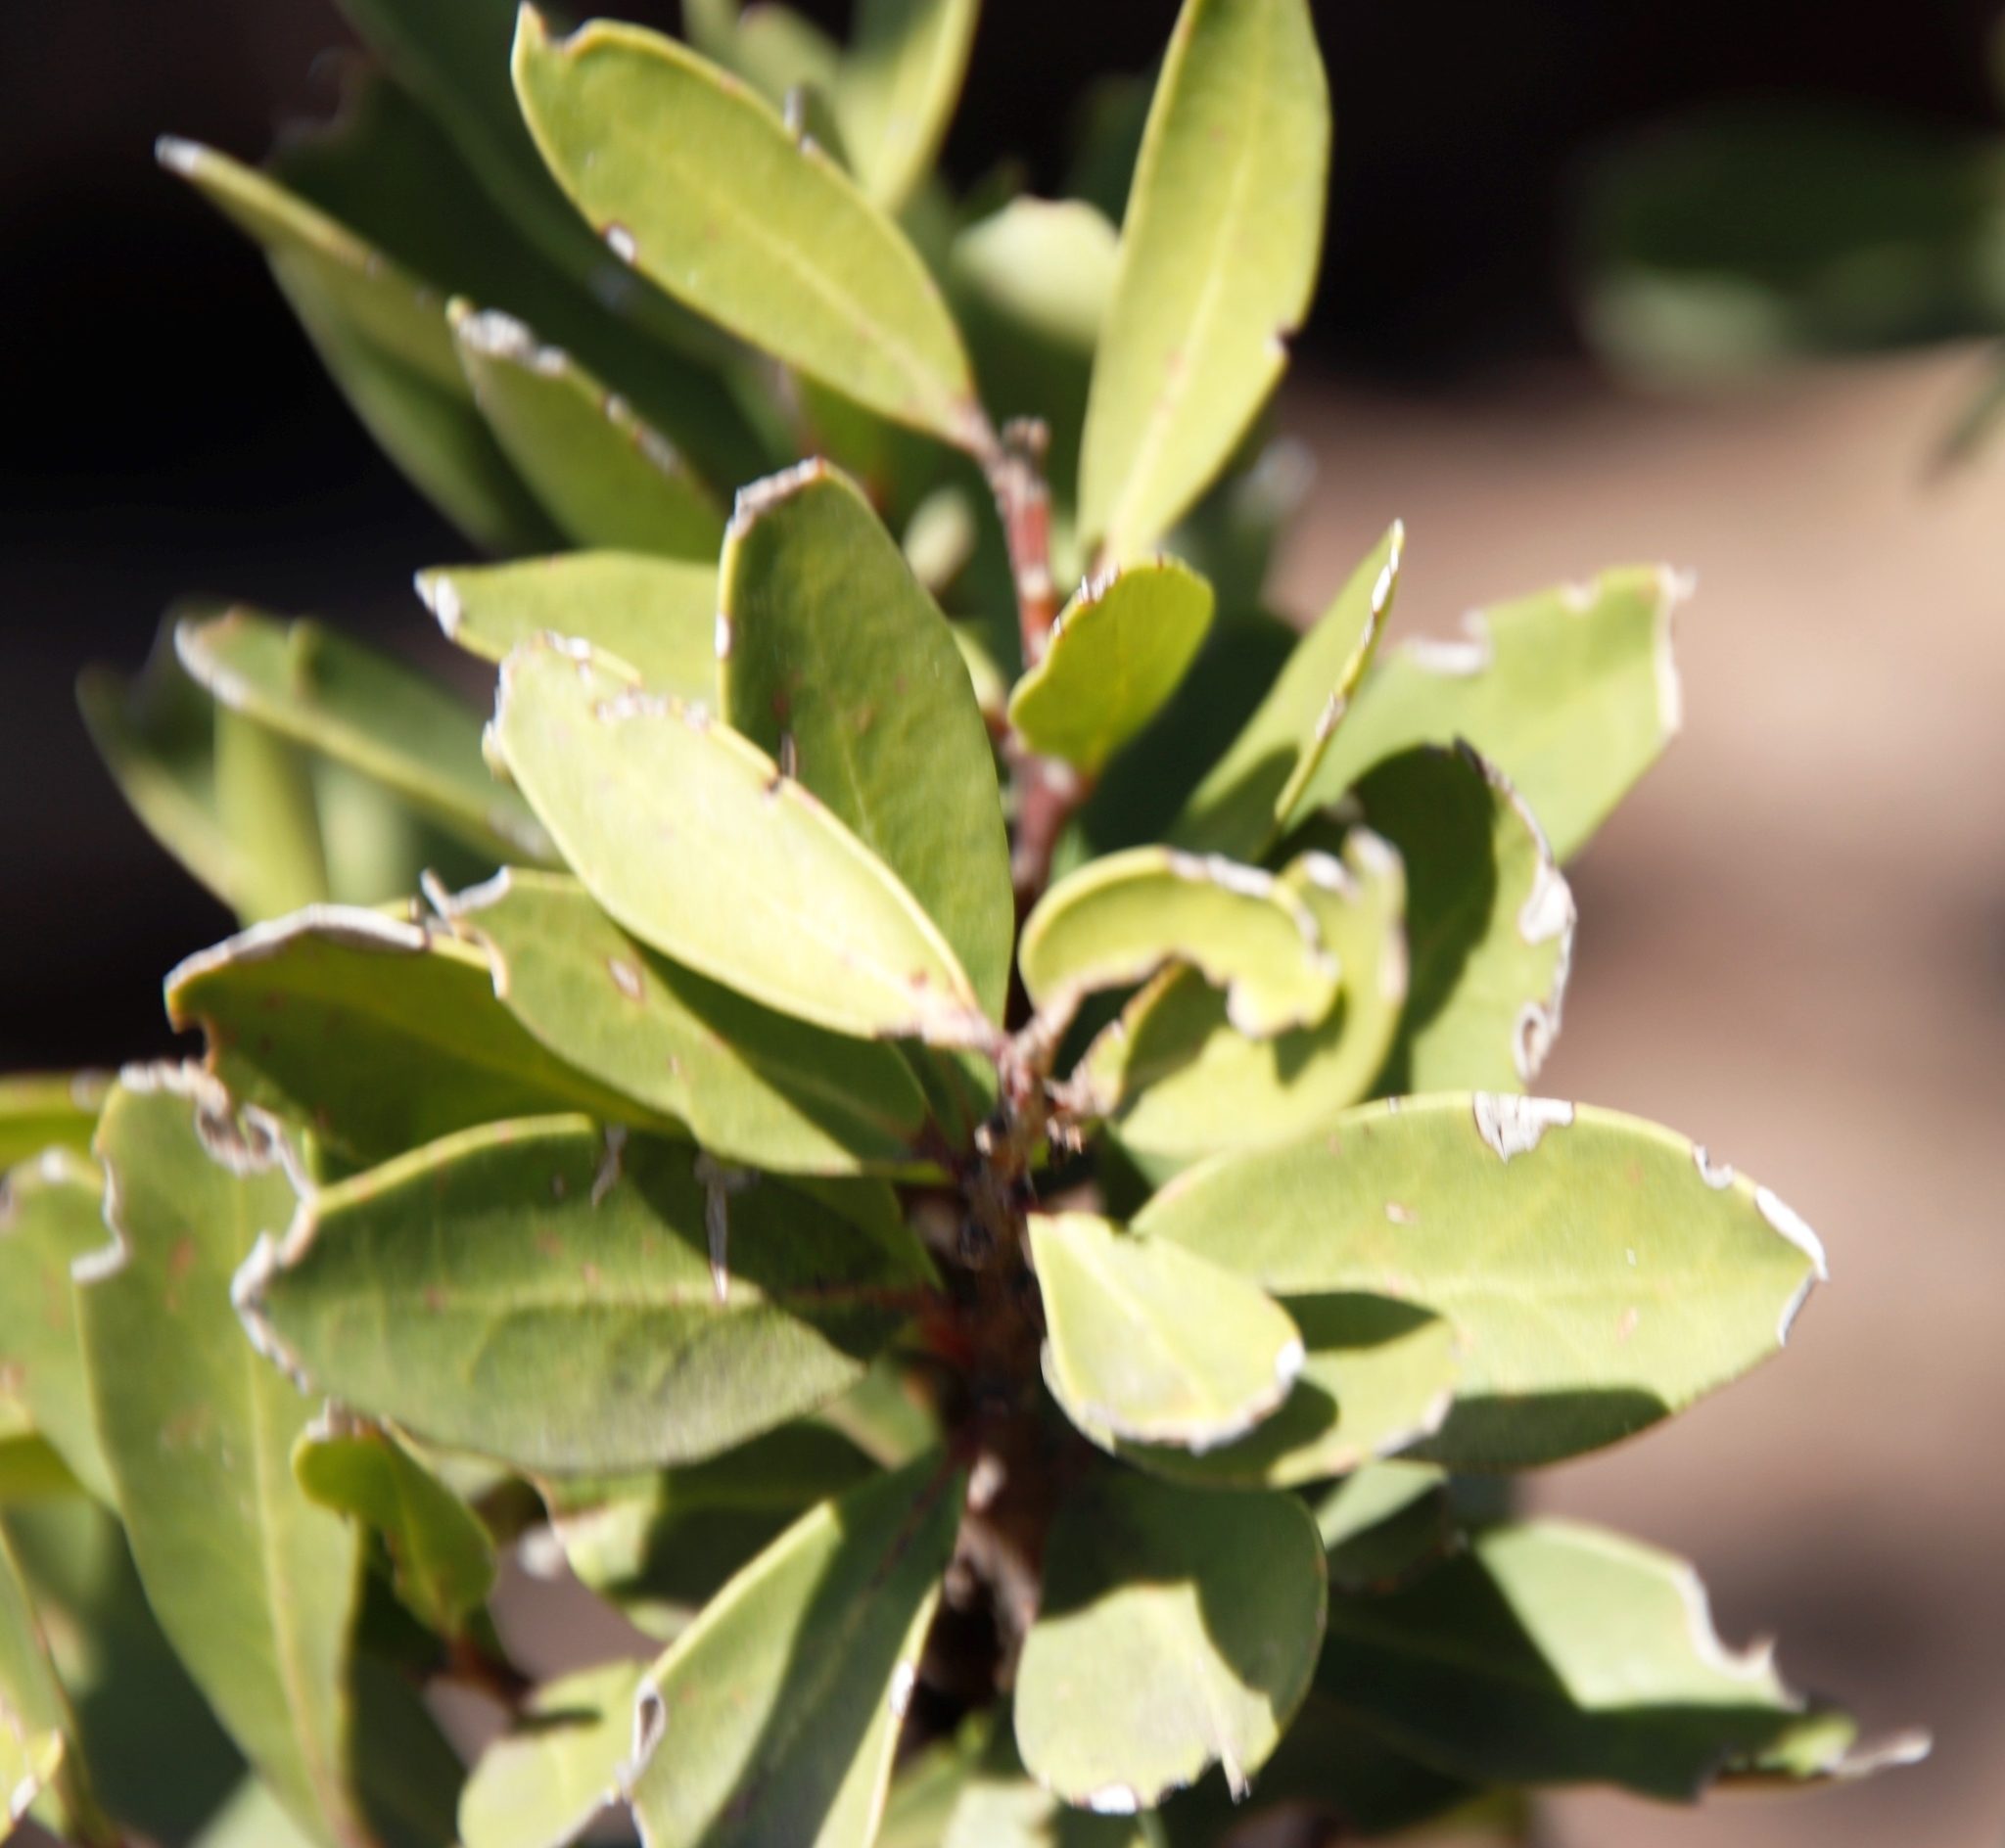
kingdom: Plantae
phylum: Tracheophyta
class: Magnoliopsida
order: Celastrales
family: Celastraceae
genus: Gymnosporia
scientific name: Gymnosporia laurina
